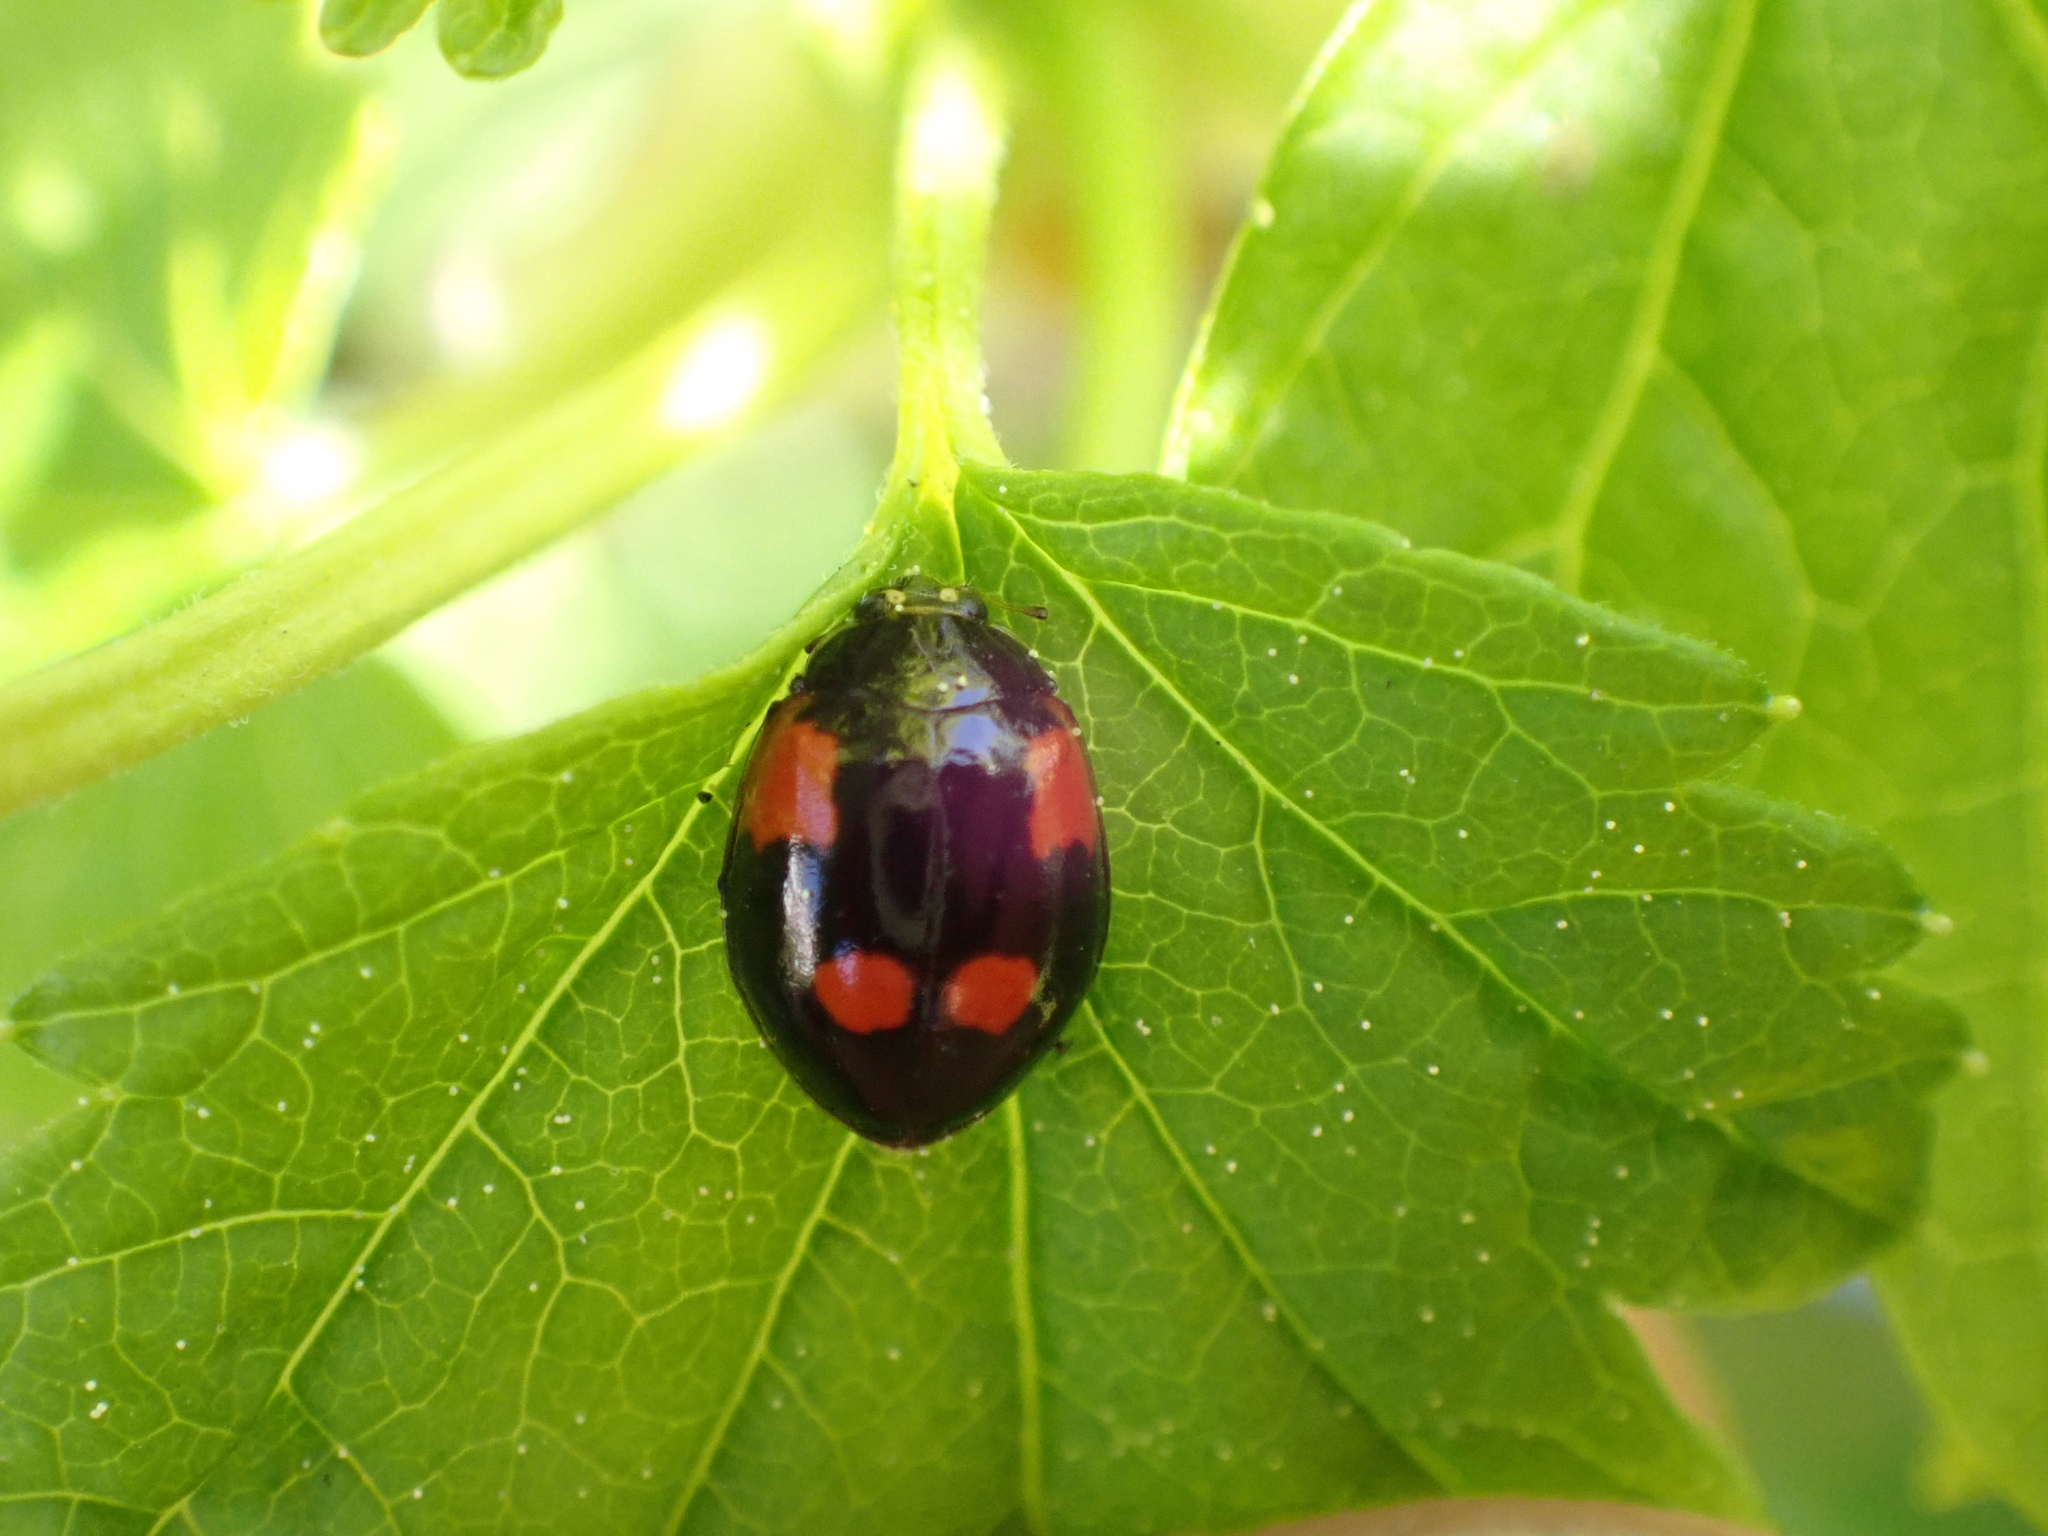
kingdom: Animalia
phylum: Arthropoda
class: Insecta
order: Coleoptera
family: Coccinellidae
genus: Adalia
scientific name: Adalia bipunctata
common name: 2-spot ladybird
